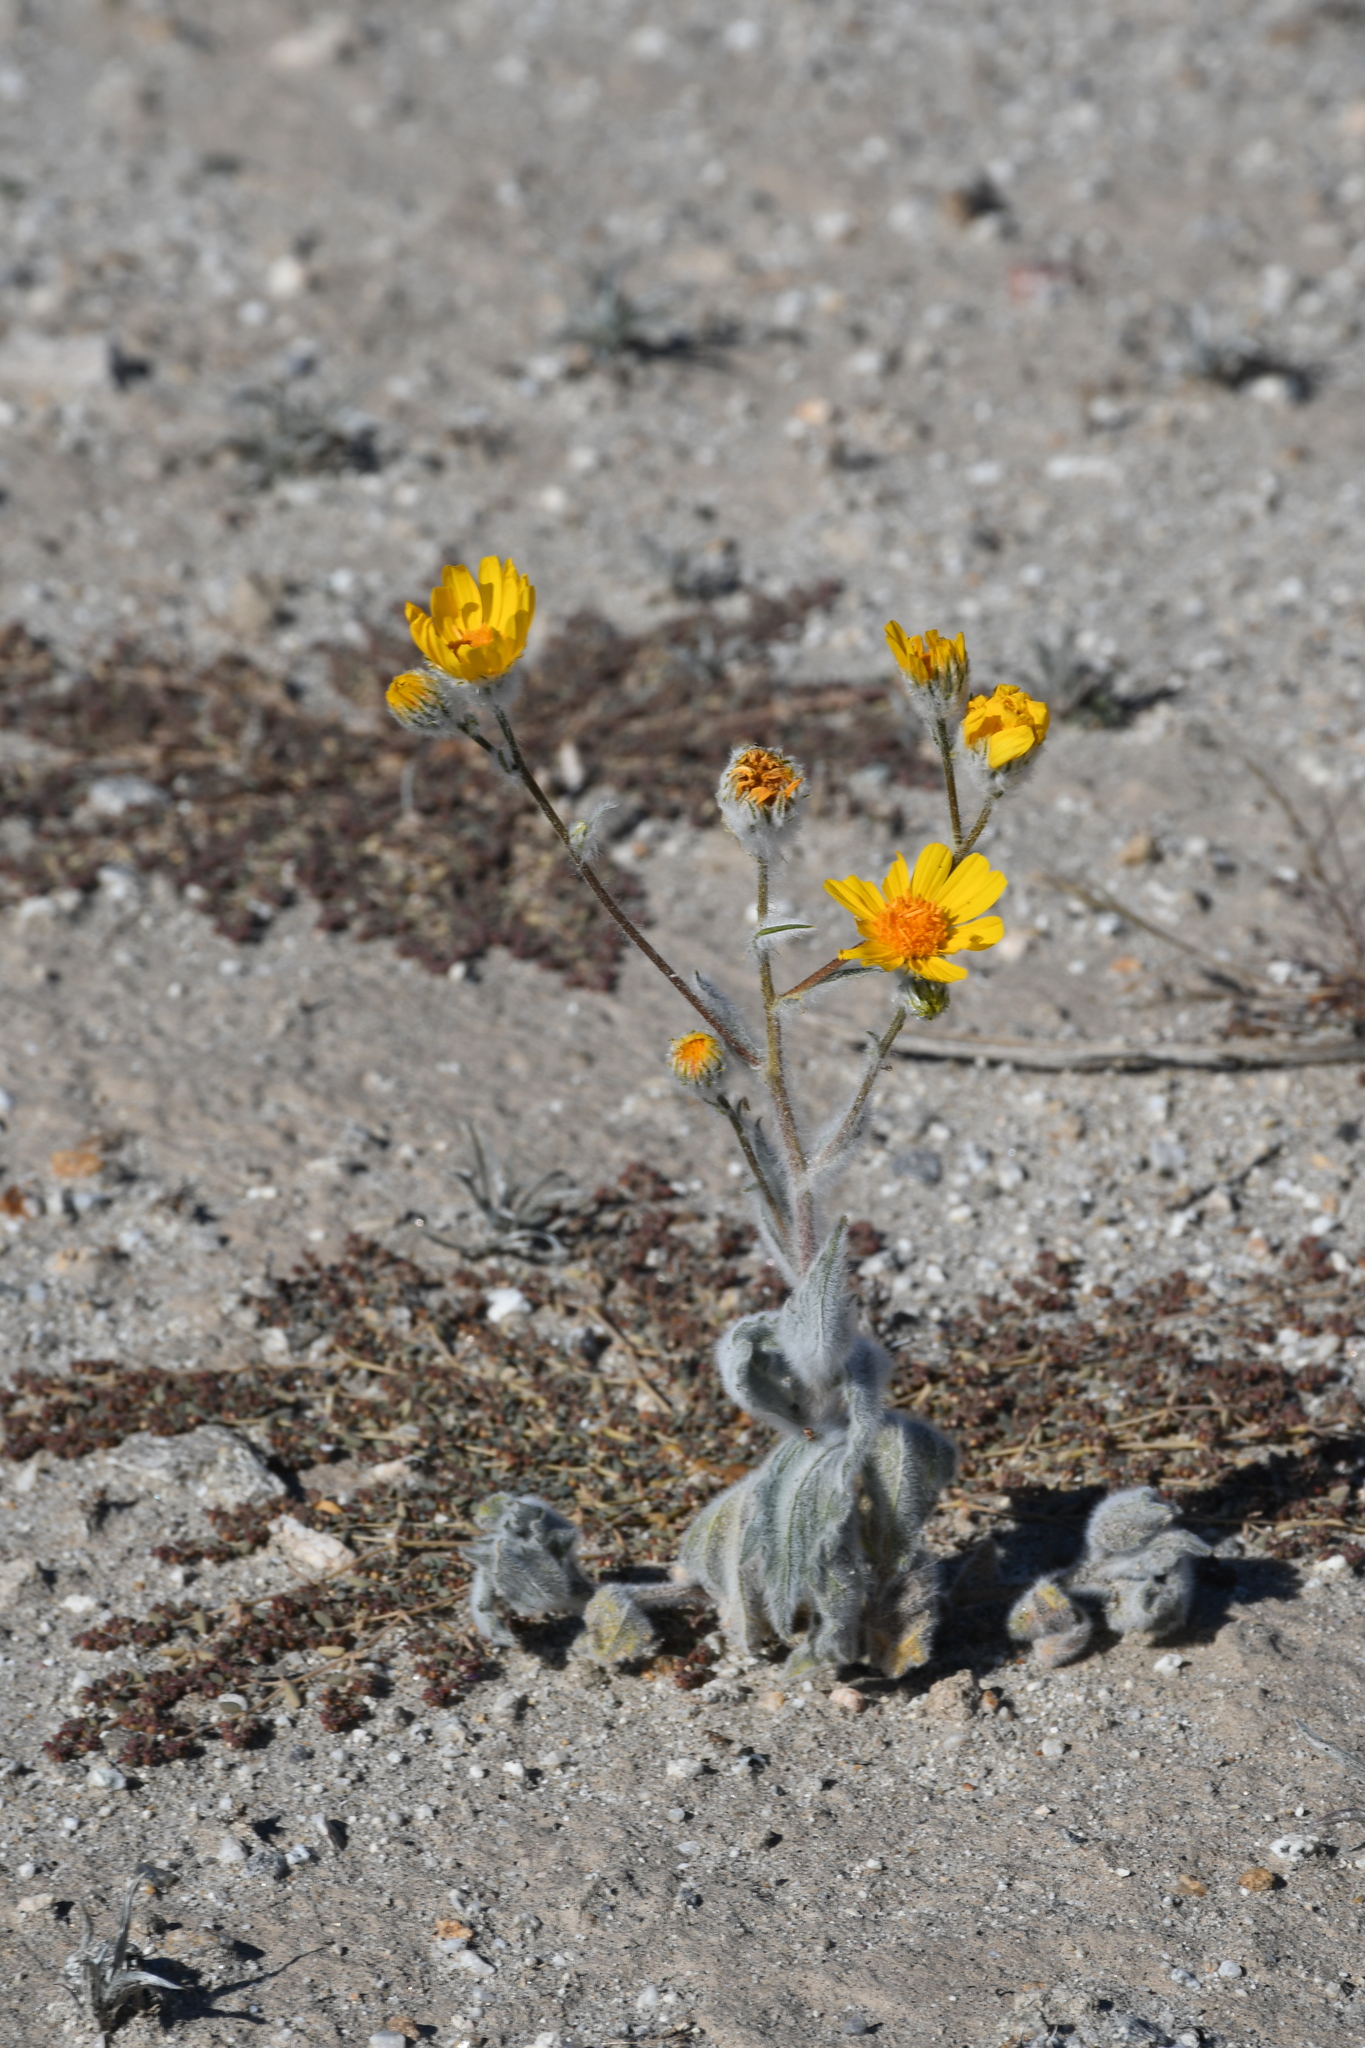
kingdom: Plantae
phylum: Tracheophyta
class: Magnoliopsida
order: Asterales
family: Asteraceae
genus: Geraea
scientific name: Geraea canescens
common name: Desert-gold
